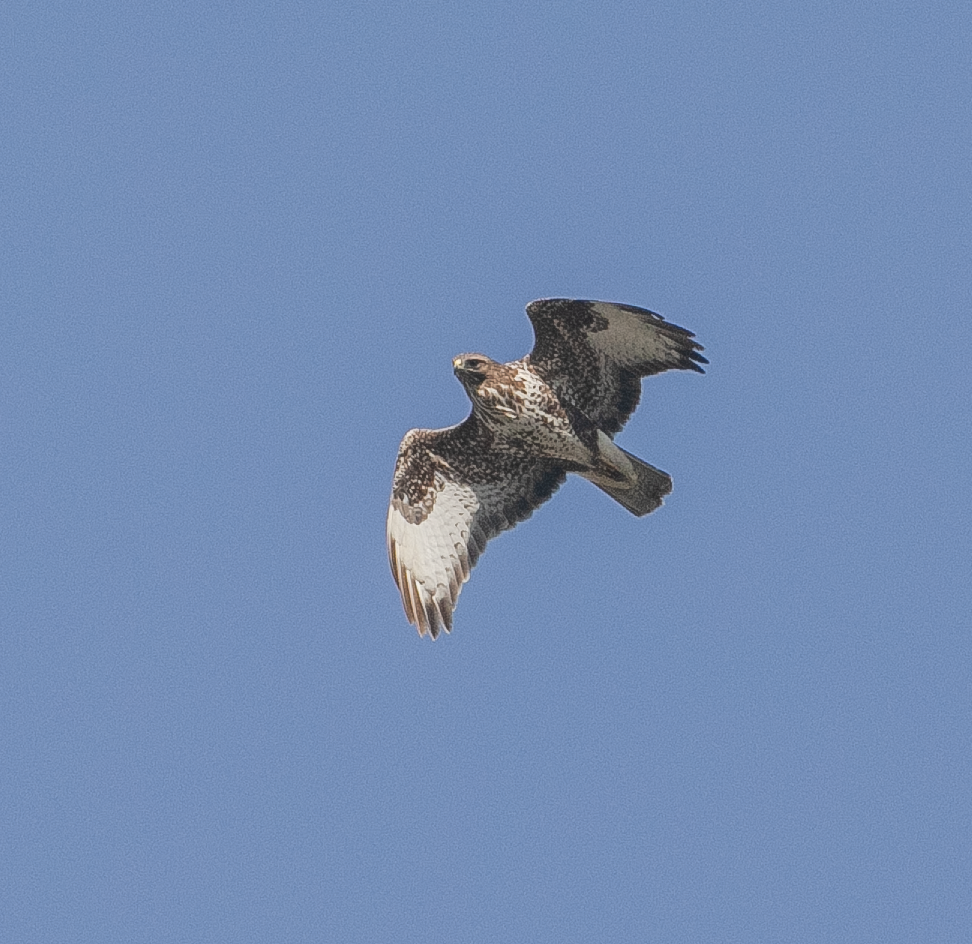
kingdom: Animalia
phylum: Chordata
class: Aves
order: Accipitriformes
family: Accipitridae
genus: Buteo
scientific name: Buteo buteo
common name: Common buzzard
